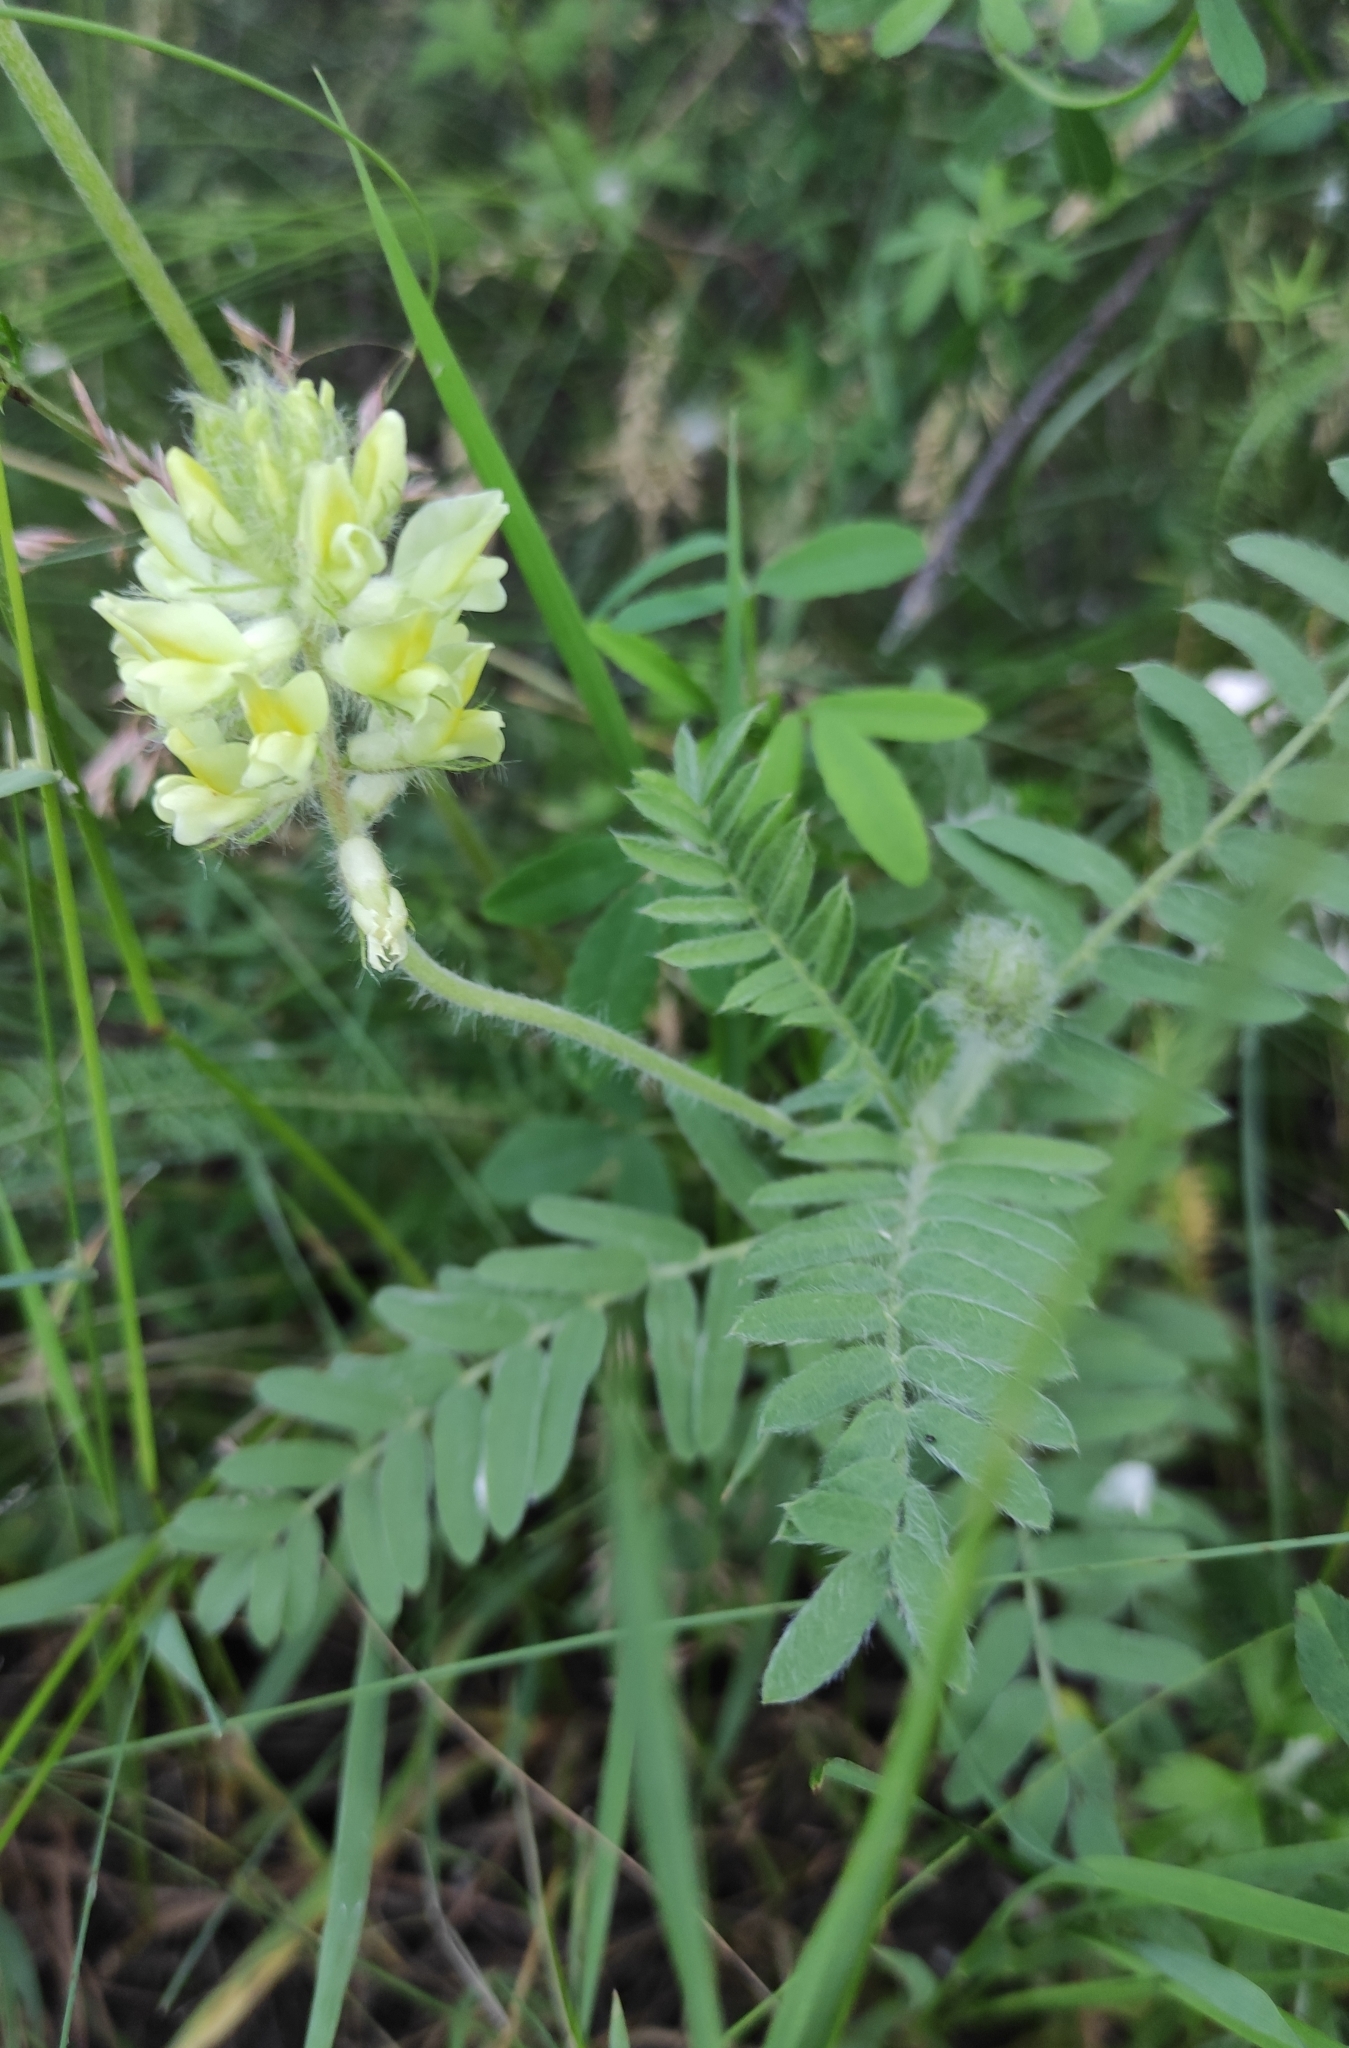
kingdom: Plantae
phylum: Tracheophyta
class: Magnoliopsida
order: Fabales
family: Fabaceae
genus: Oxytropis
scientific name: Oxytropis pilosa
